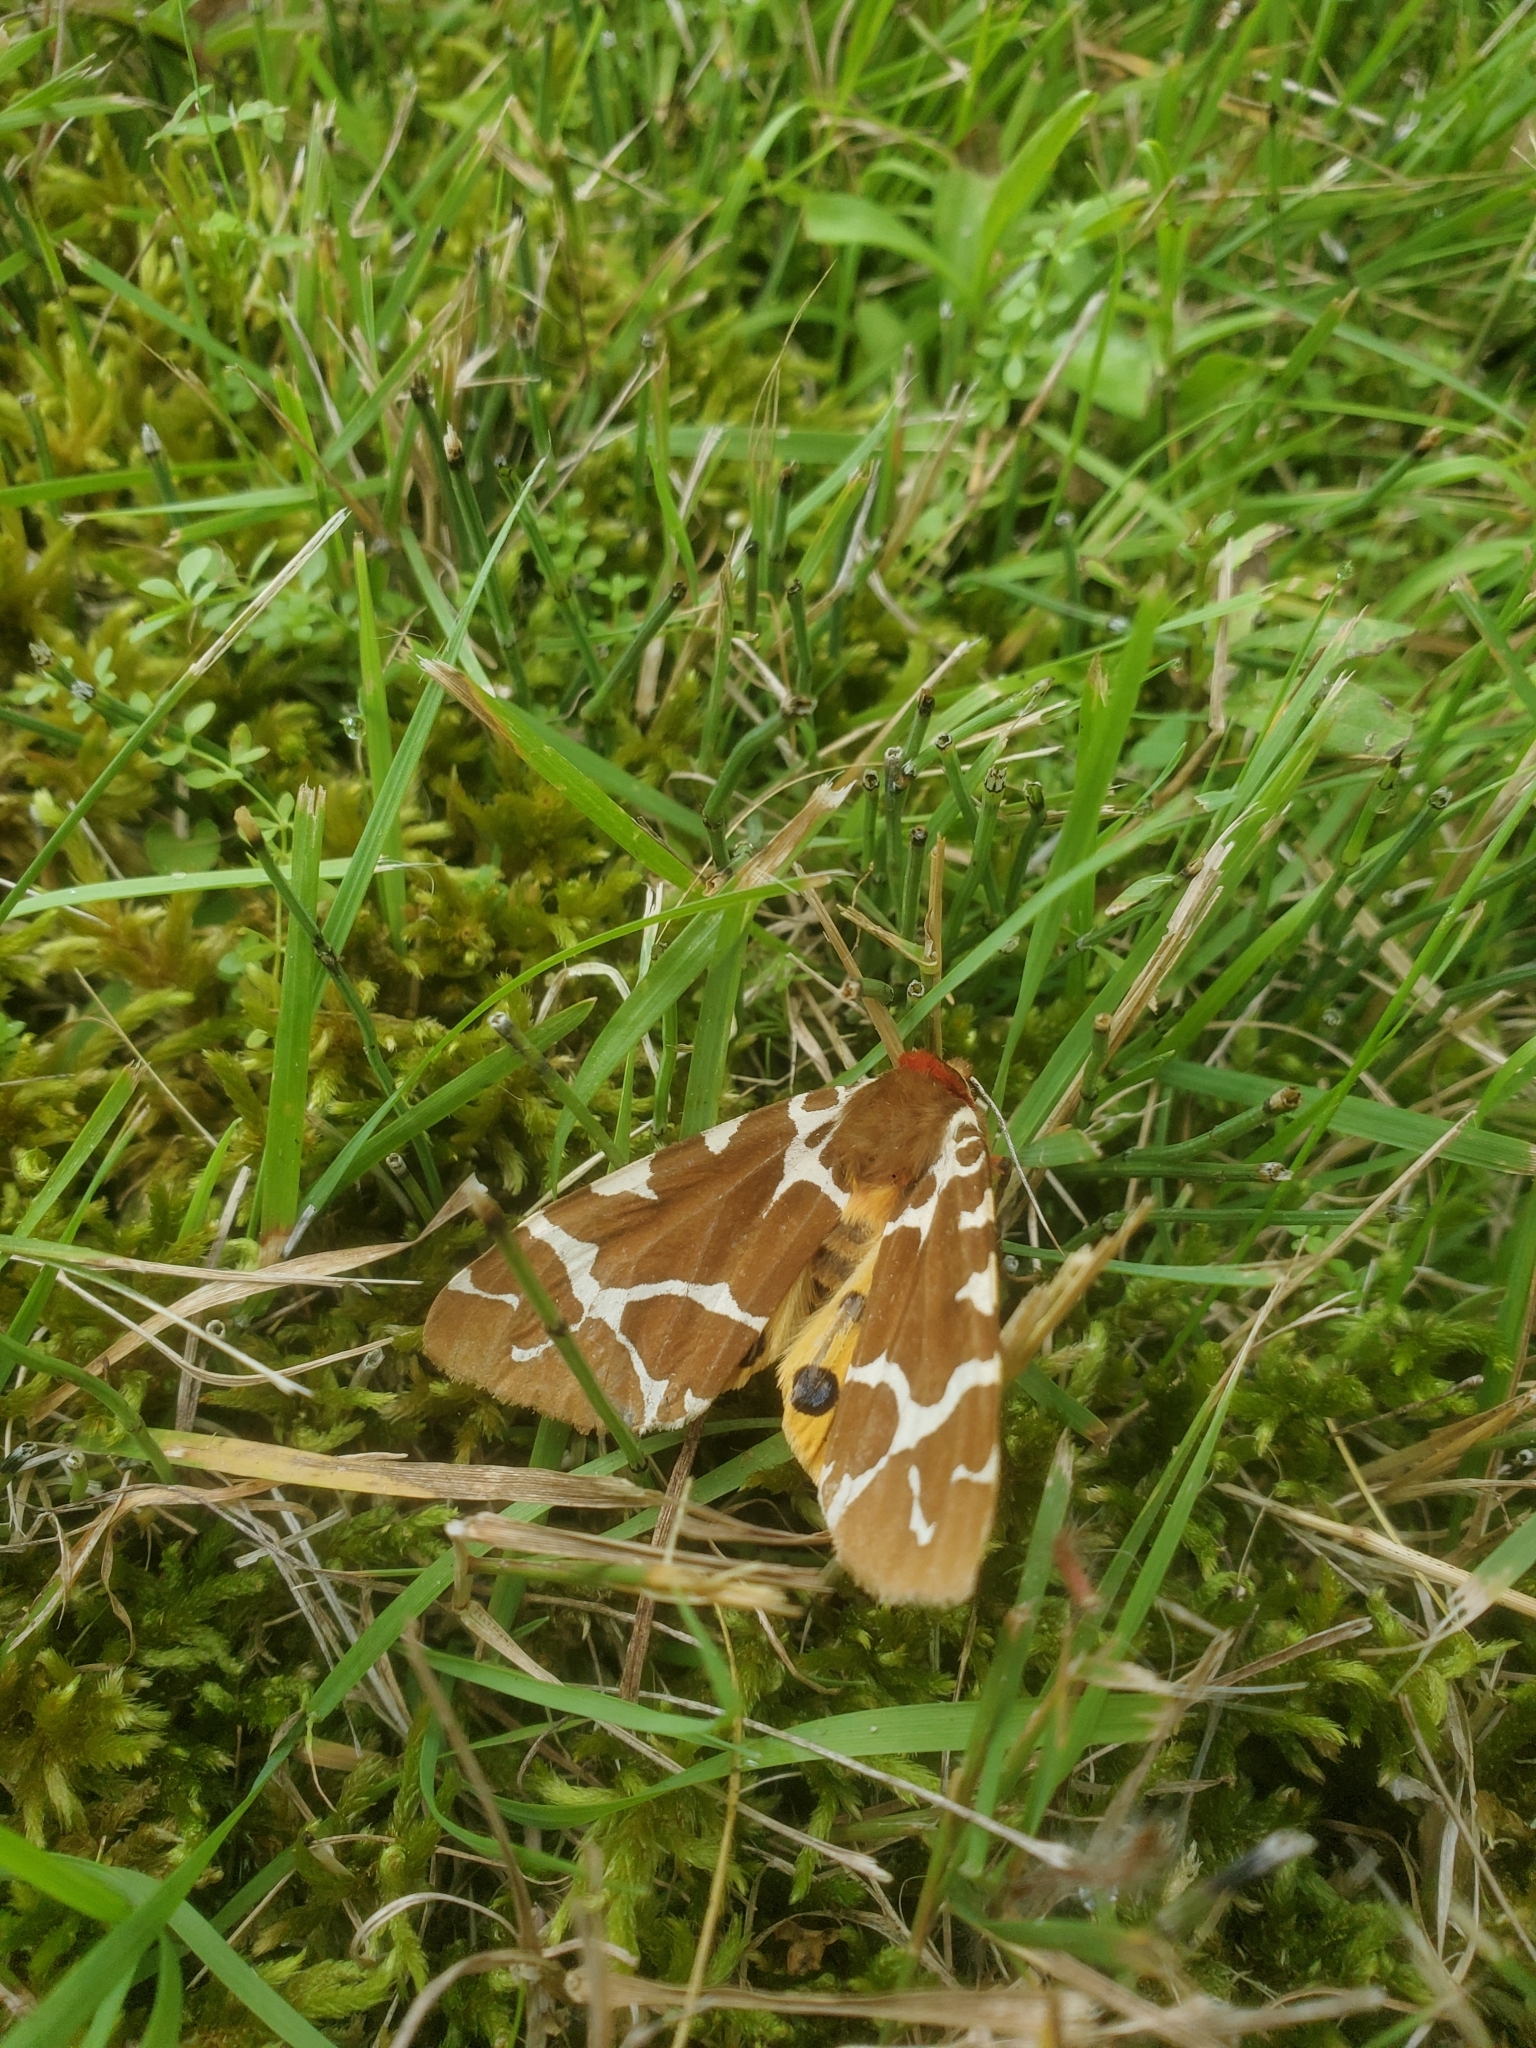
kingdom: Animalia
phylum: Arthropoda
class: Insecta
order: Lepidoptera
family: Erebidae
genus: Arctia
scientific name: Arctia caja
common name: Garden tiger
